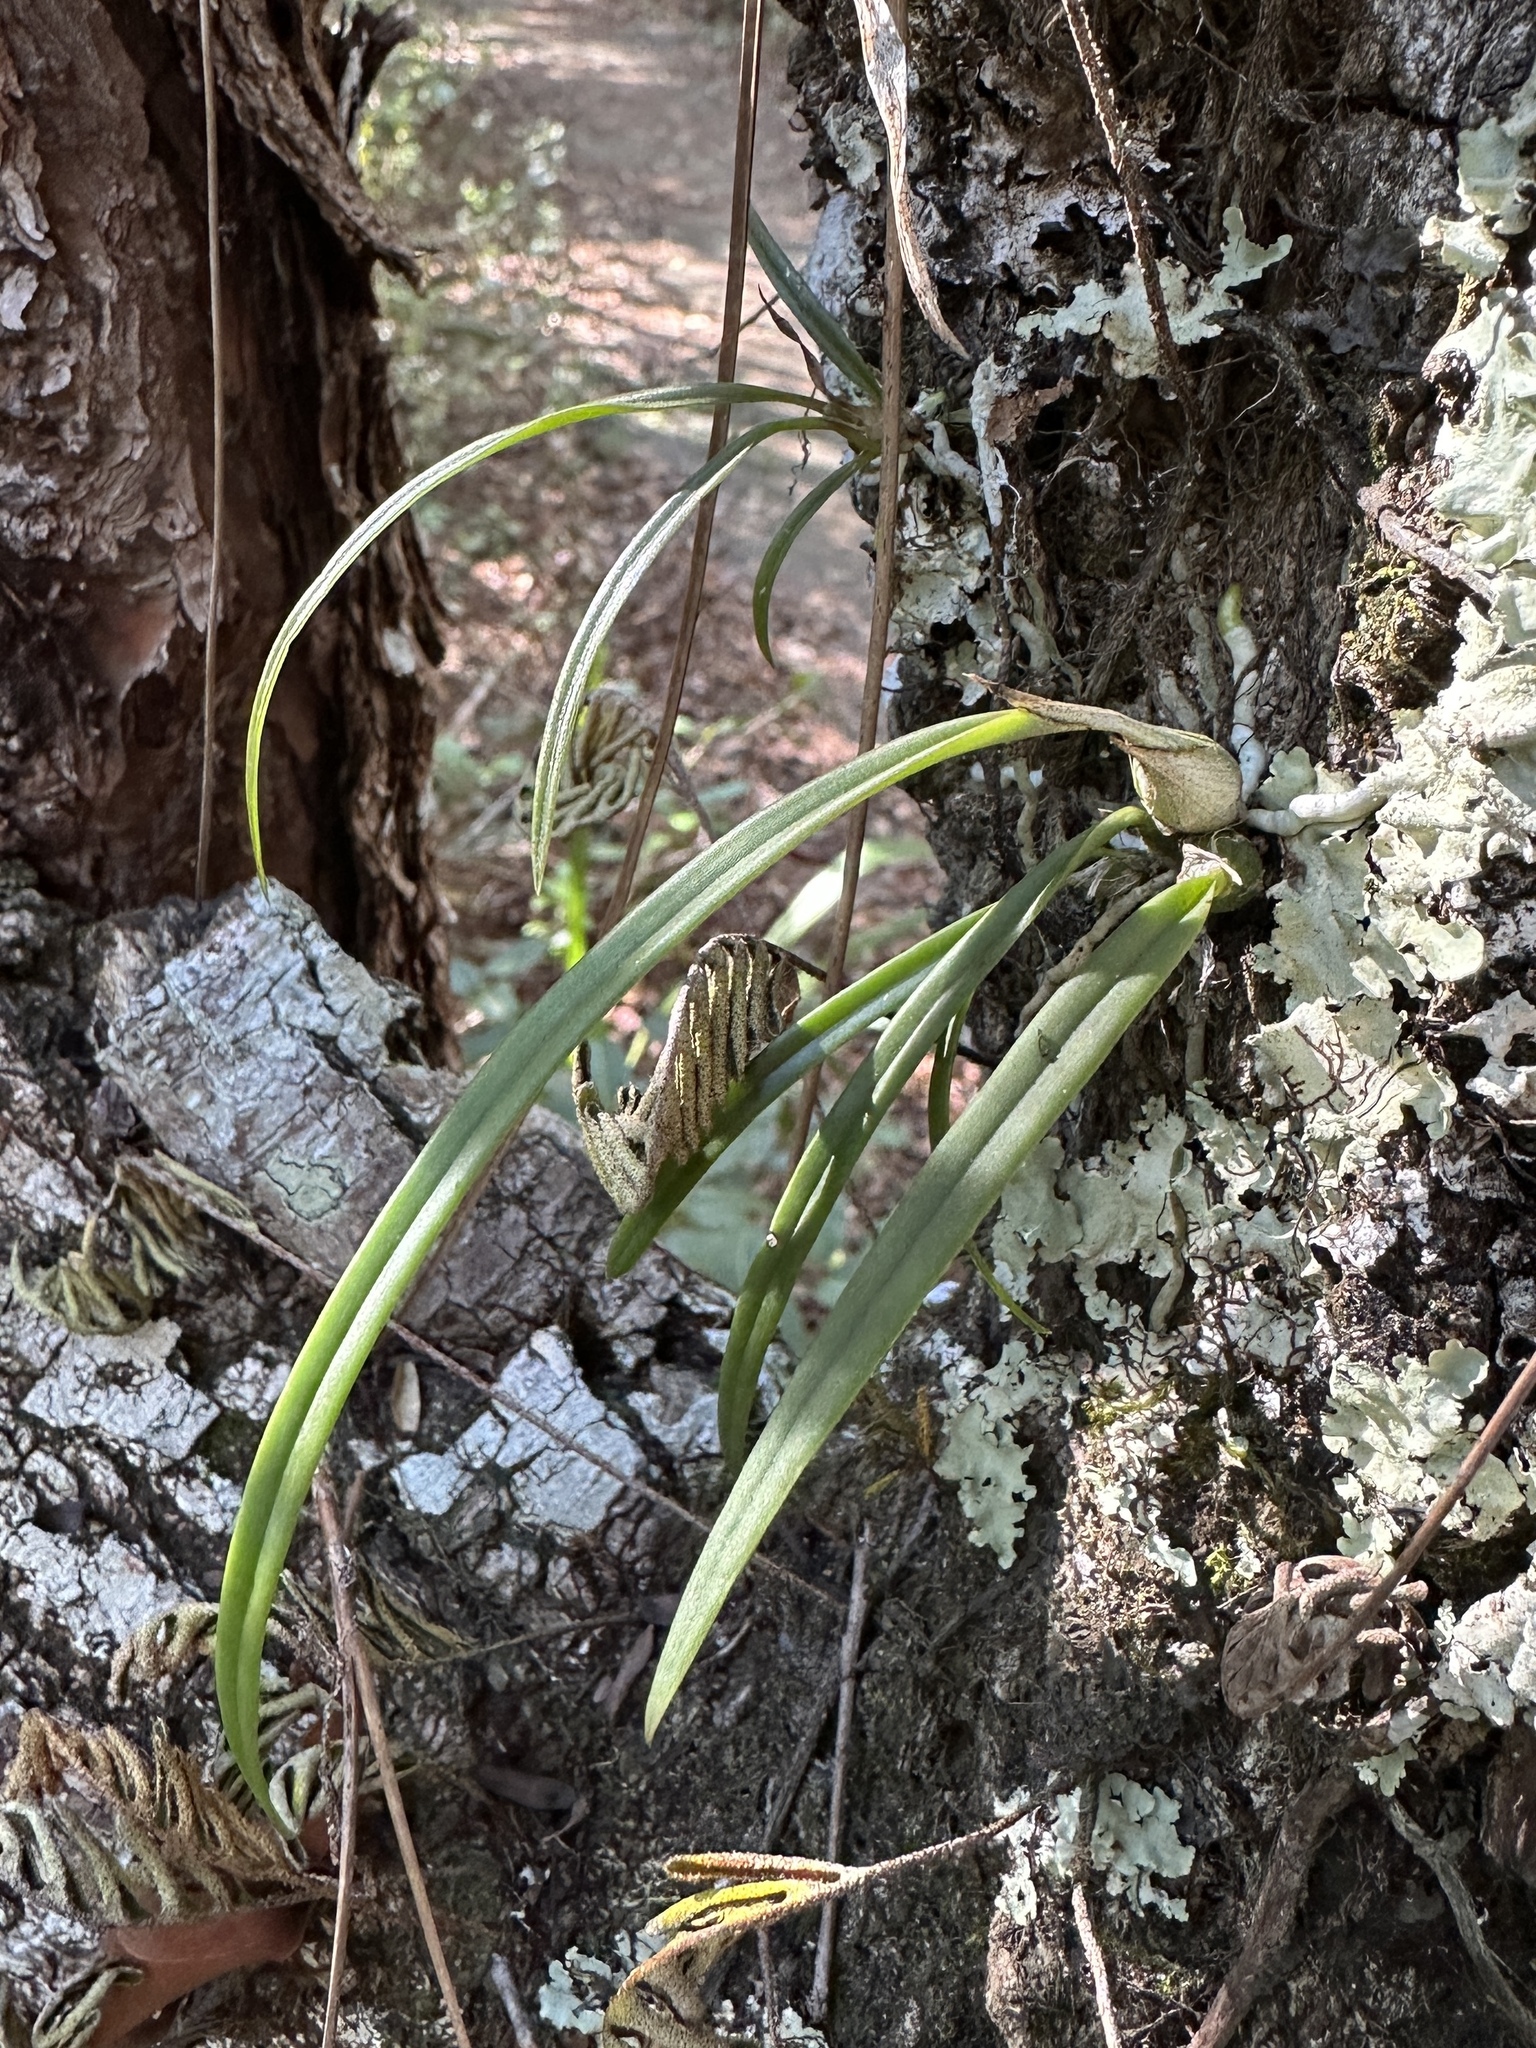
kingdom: Plantae
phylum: Tracheophyta
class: Liliopsida
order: Asparagales
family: Orchidaceae
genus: Encyclia
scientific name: Encyclia tampensis
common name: Florida butterfly orchid
